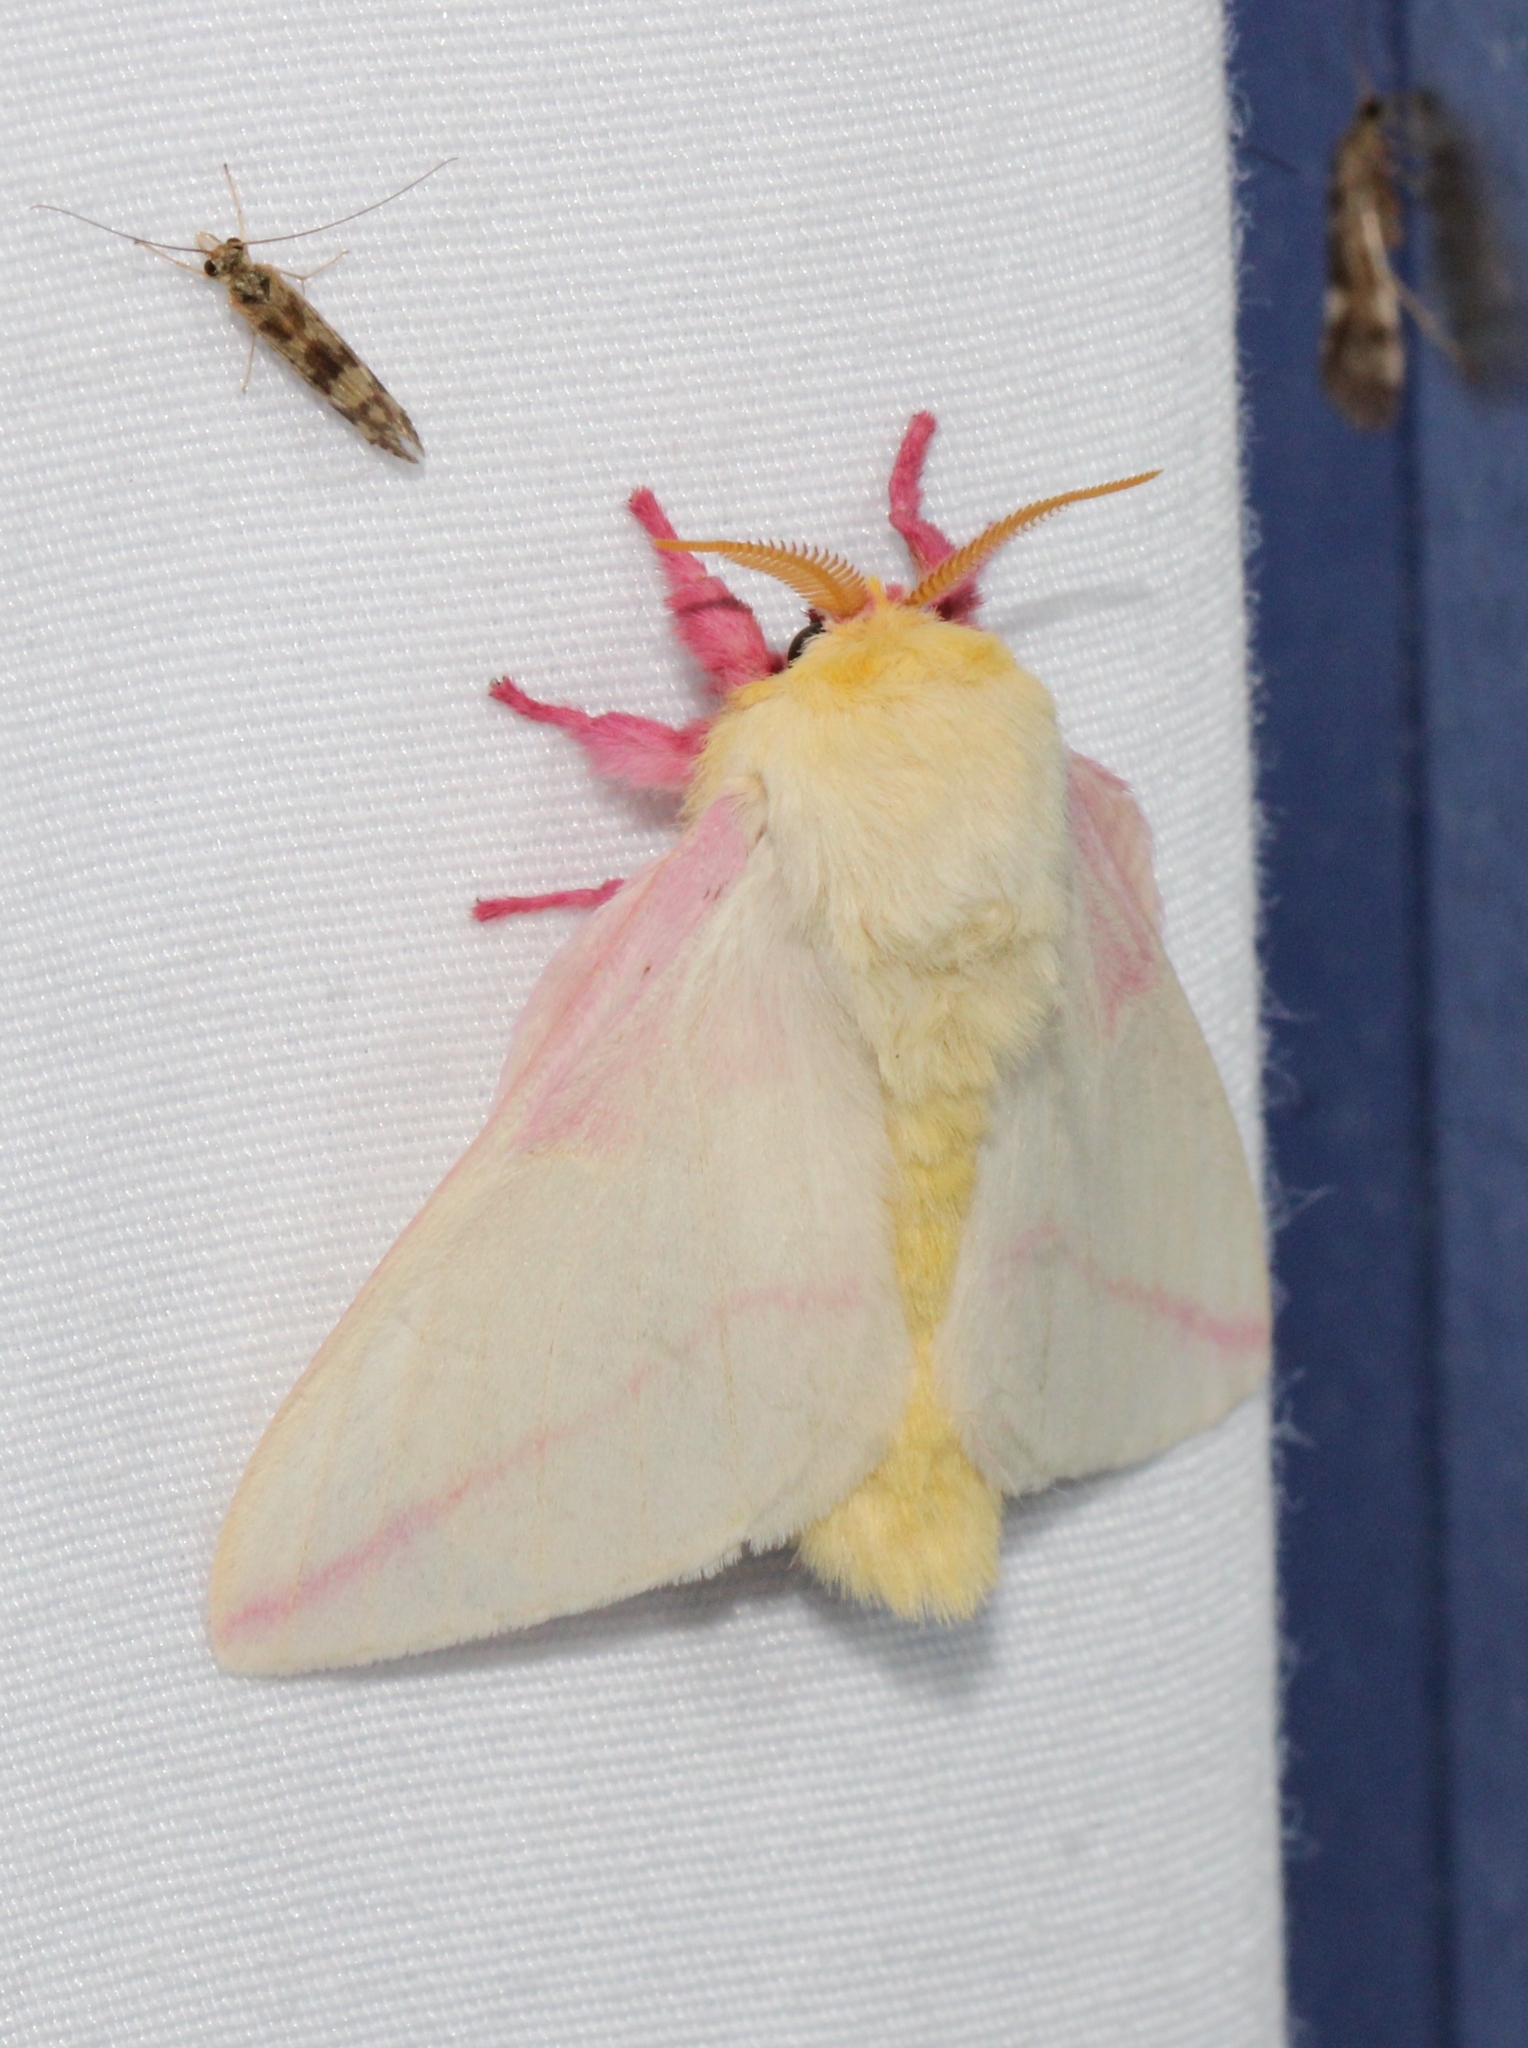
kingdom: Animalia
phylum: Arthropoda
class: Insecta
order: Lepidoptera
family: Saturniidae
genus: Dryocampa
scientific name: Dryocampa rubicunda
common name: Rosy maple moth
